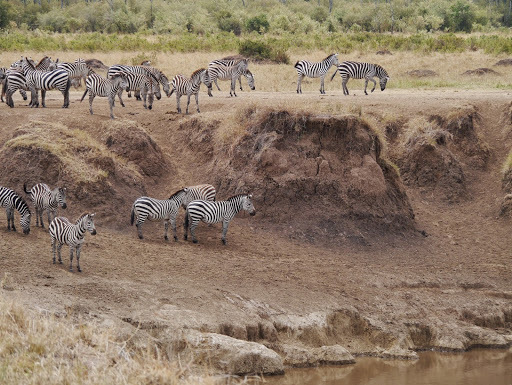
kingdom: Animalia
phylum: Chordata
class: Mammalia
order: Perissodactyla
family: Equidae
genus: Equus
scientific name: Equus quagga
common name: Plains zebra
